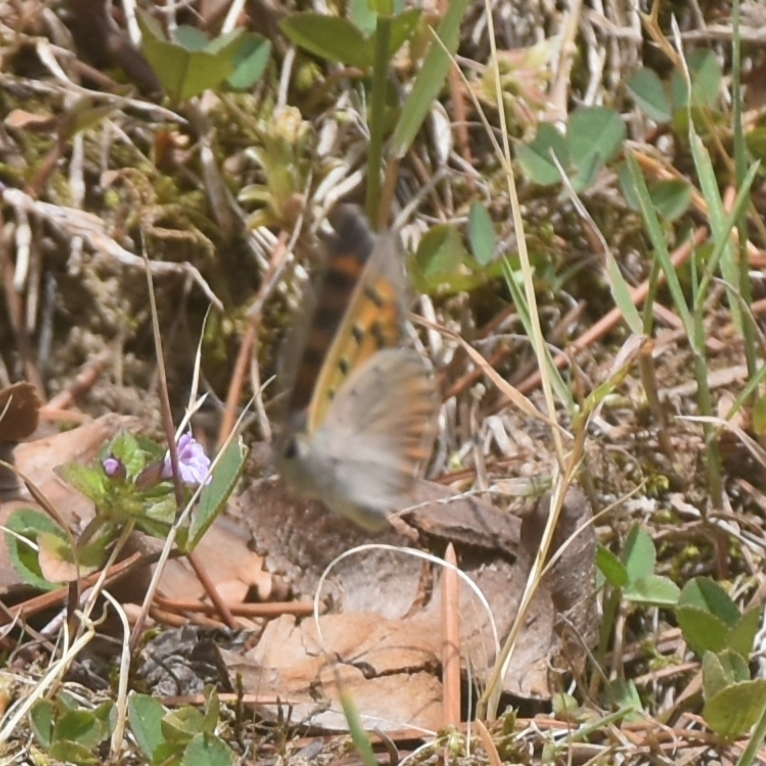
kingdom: Animalia
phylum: Arthropoda
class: Insecta
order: Lepidoptera
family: Lycaenidae
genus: Lycaena
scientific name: Lycaena phlaeas
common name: Small copper
